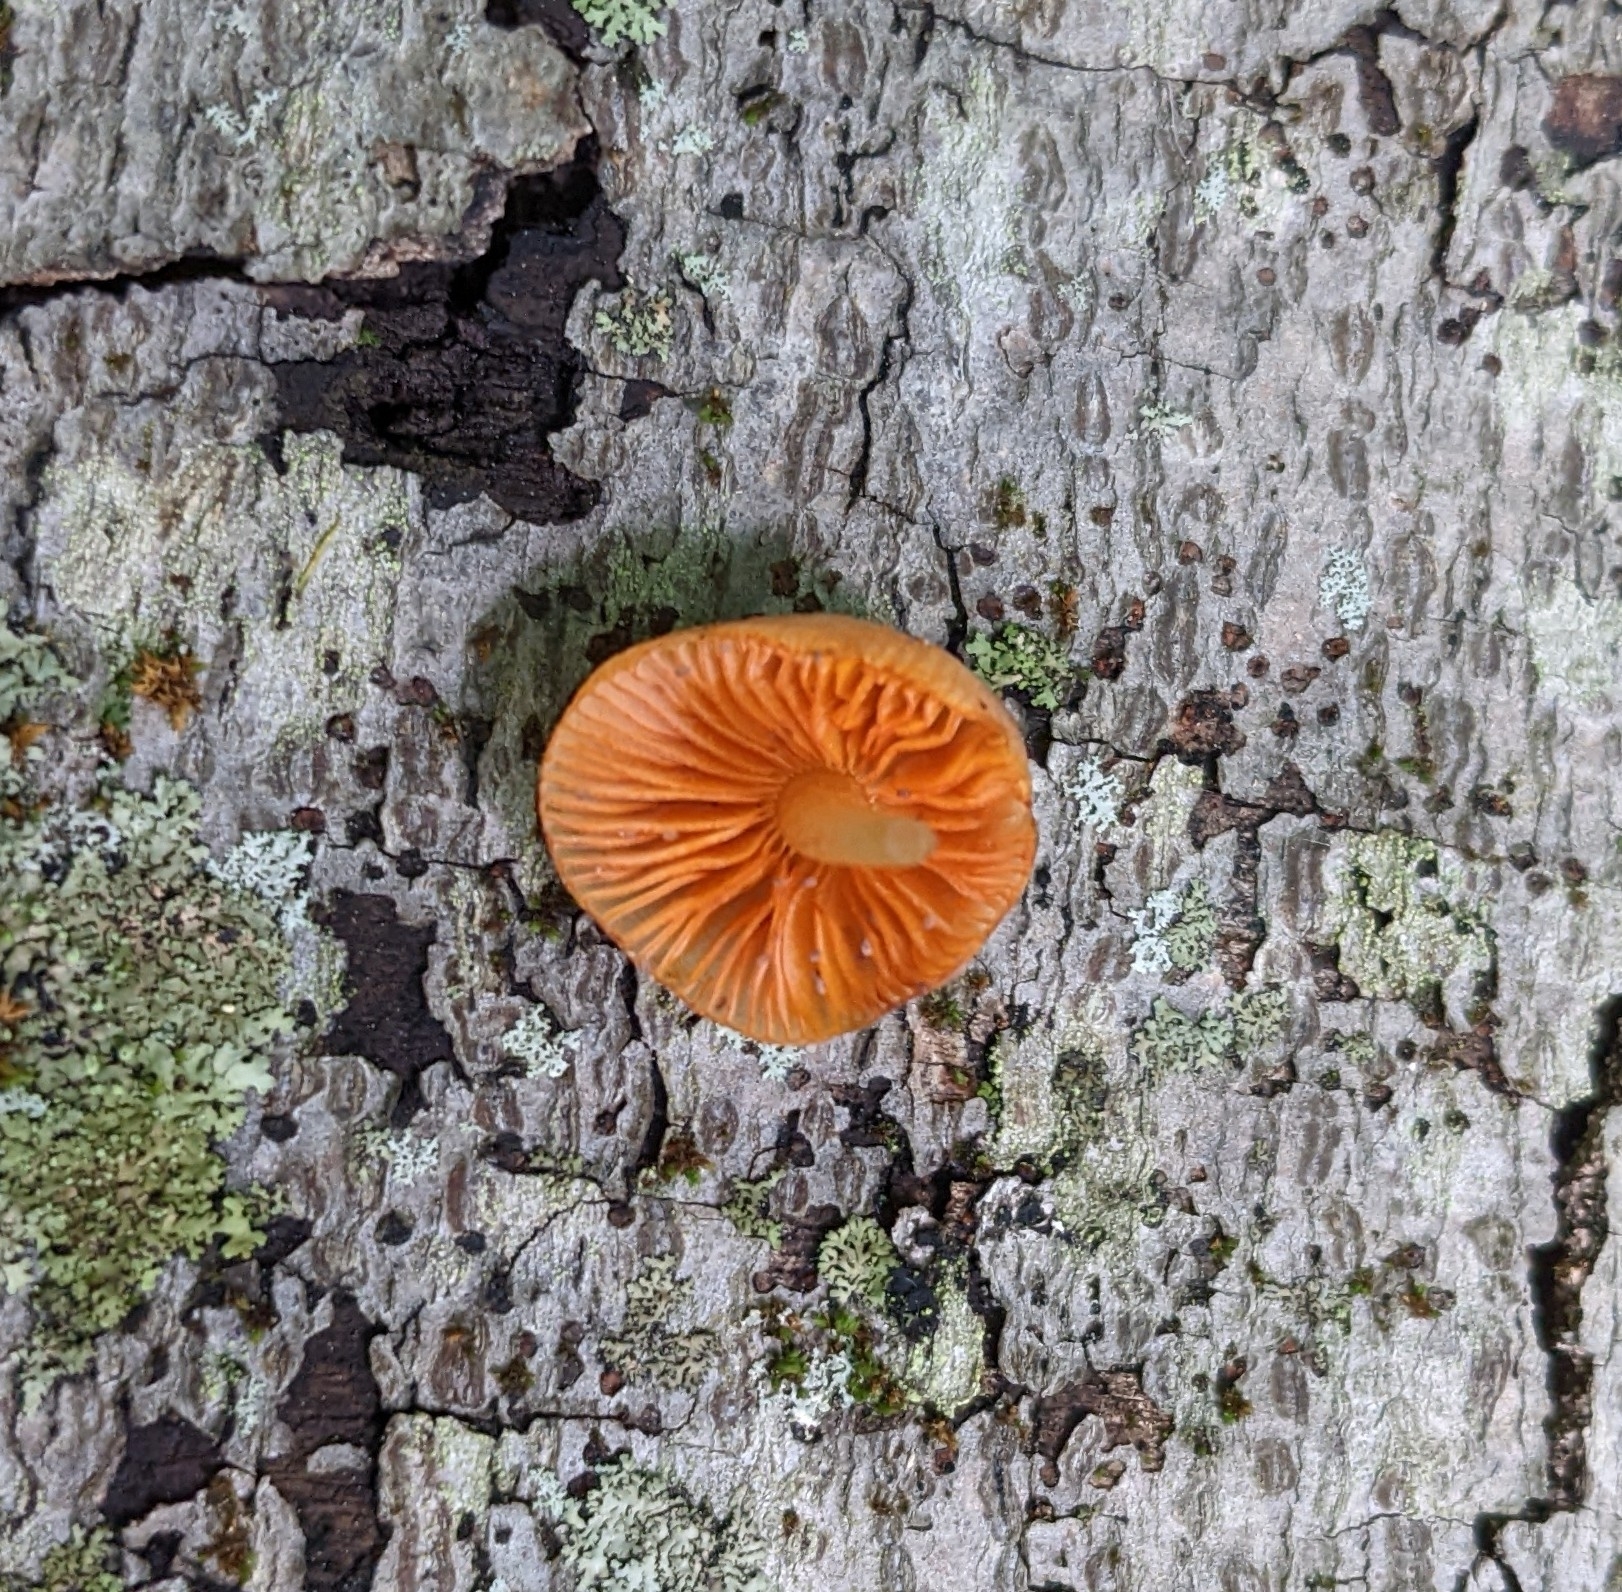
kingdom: Fungi
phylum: Basidiomycota
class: Agaricomycetes
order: Agaricales
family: Mycenaceae
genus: Mycena
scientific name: Mycena leaiana
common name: Orange mycena
